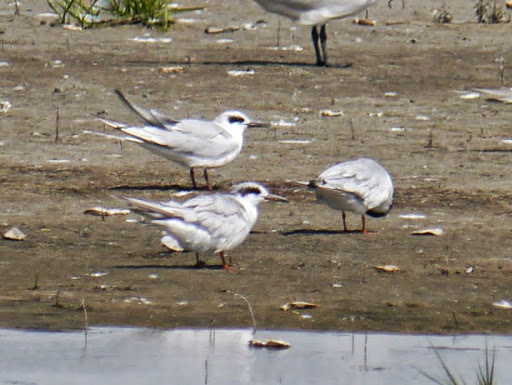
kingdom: Animalia
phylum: Chordata
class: Aves
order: Charadriiformes
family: Laridae
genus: Sterna
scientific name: Sterna forsteri
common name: Forster's tern
